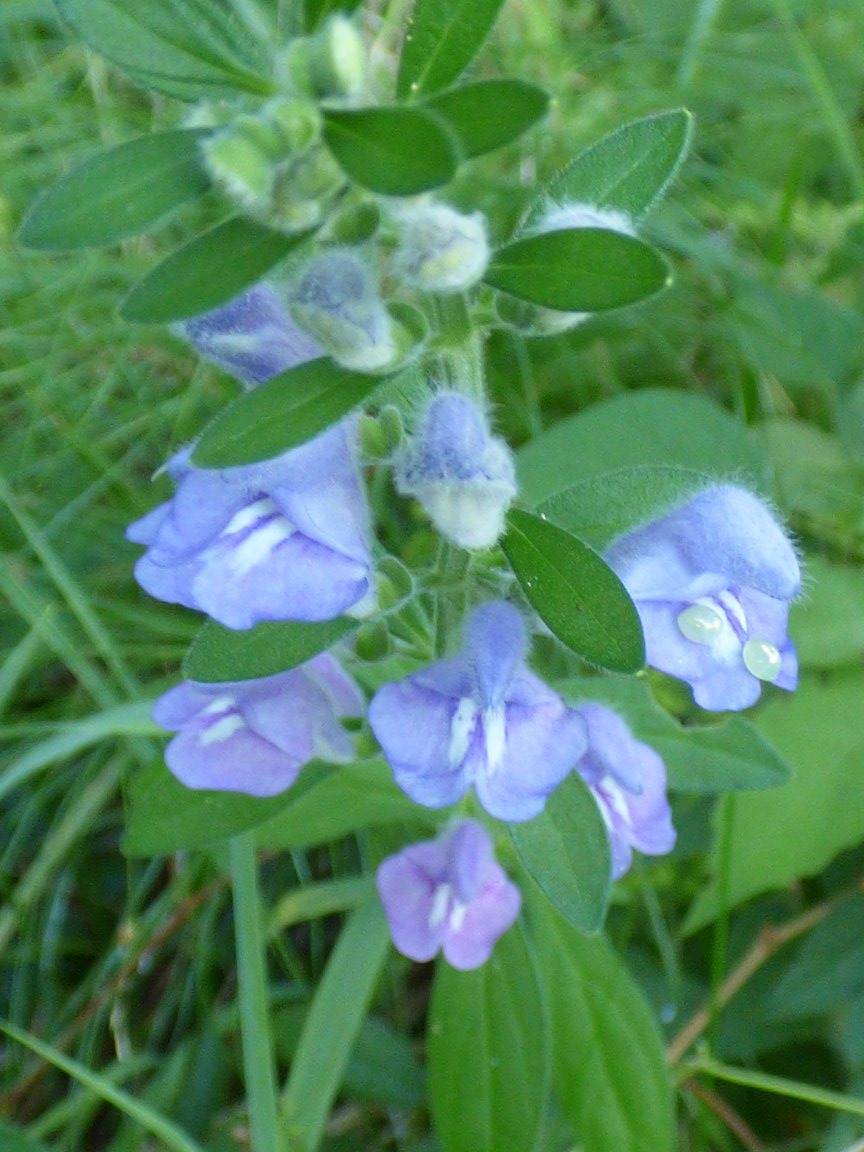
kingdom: Plantae
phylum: Tracheophyta
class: Magnoliopsida
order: Lamiales
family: Lamiaceae
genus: Scutellaria
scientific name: Scutellaria integrifolia
